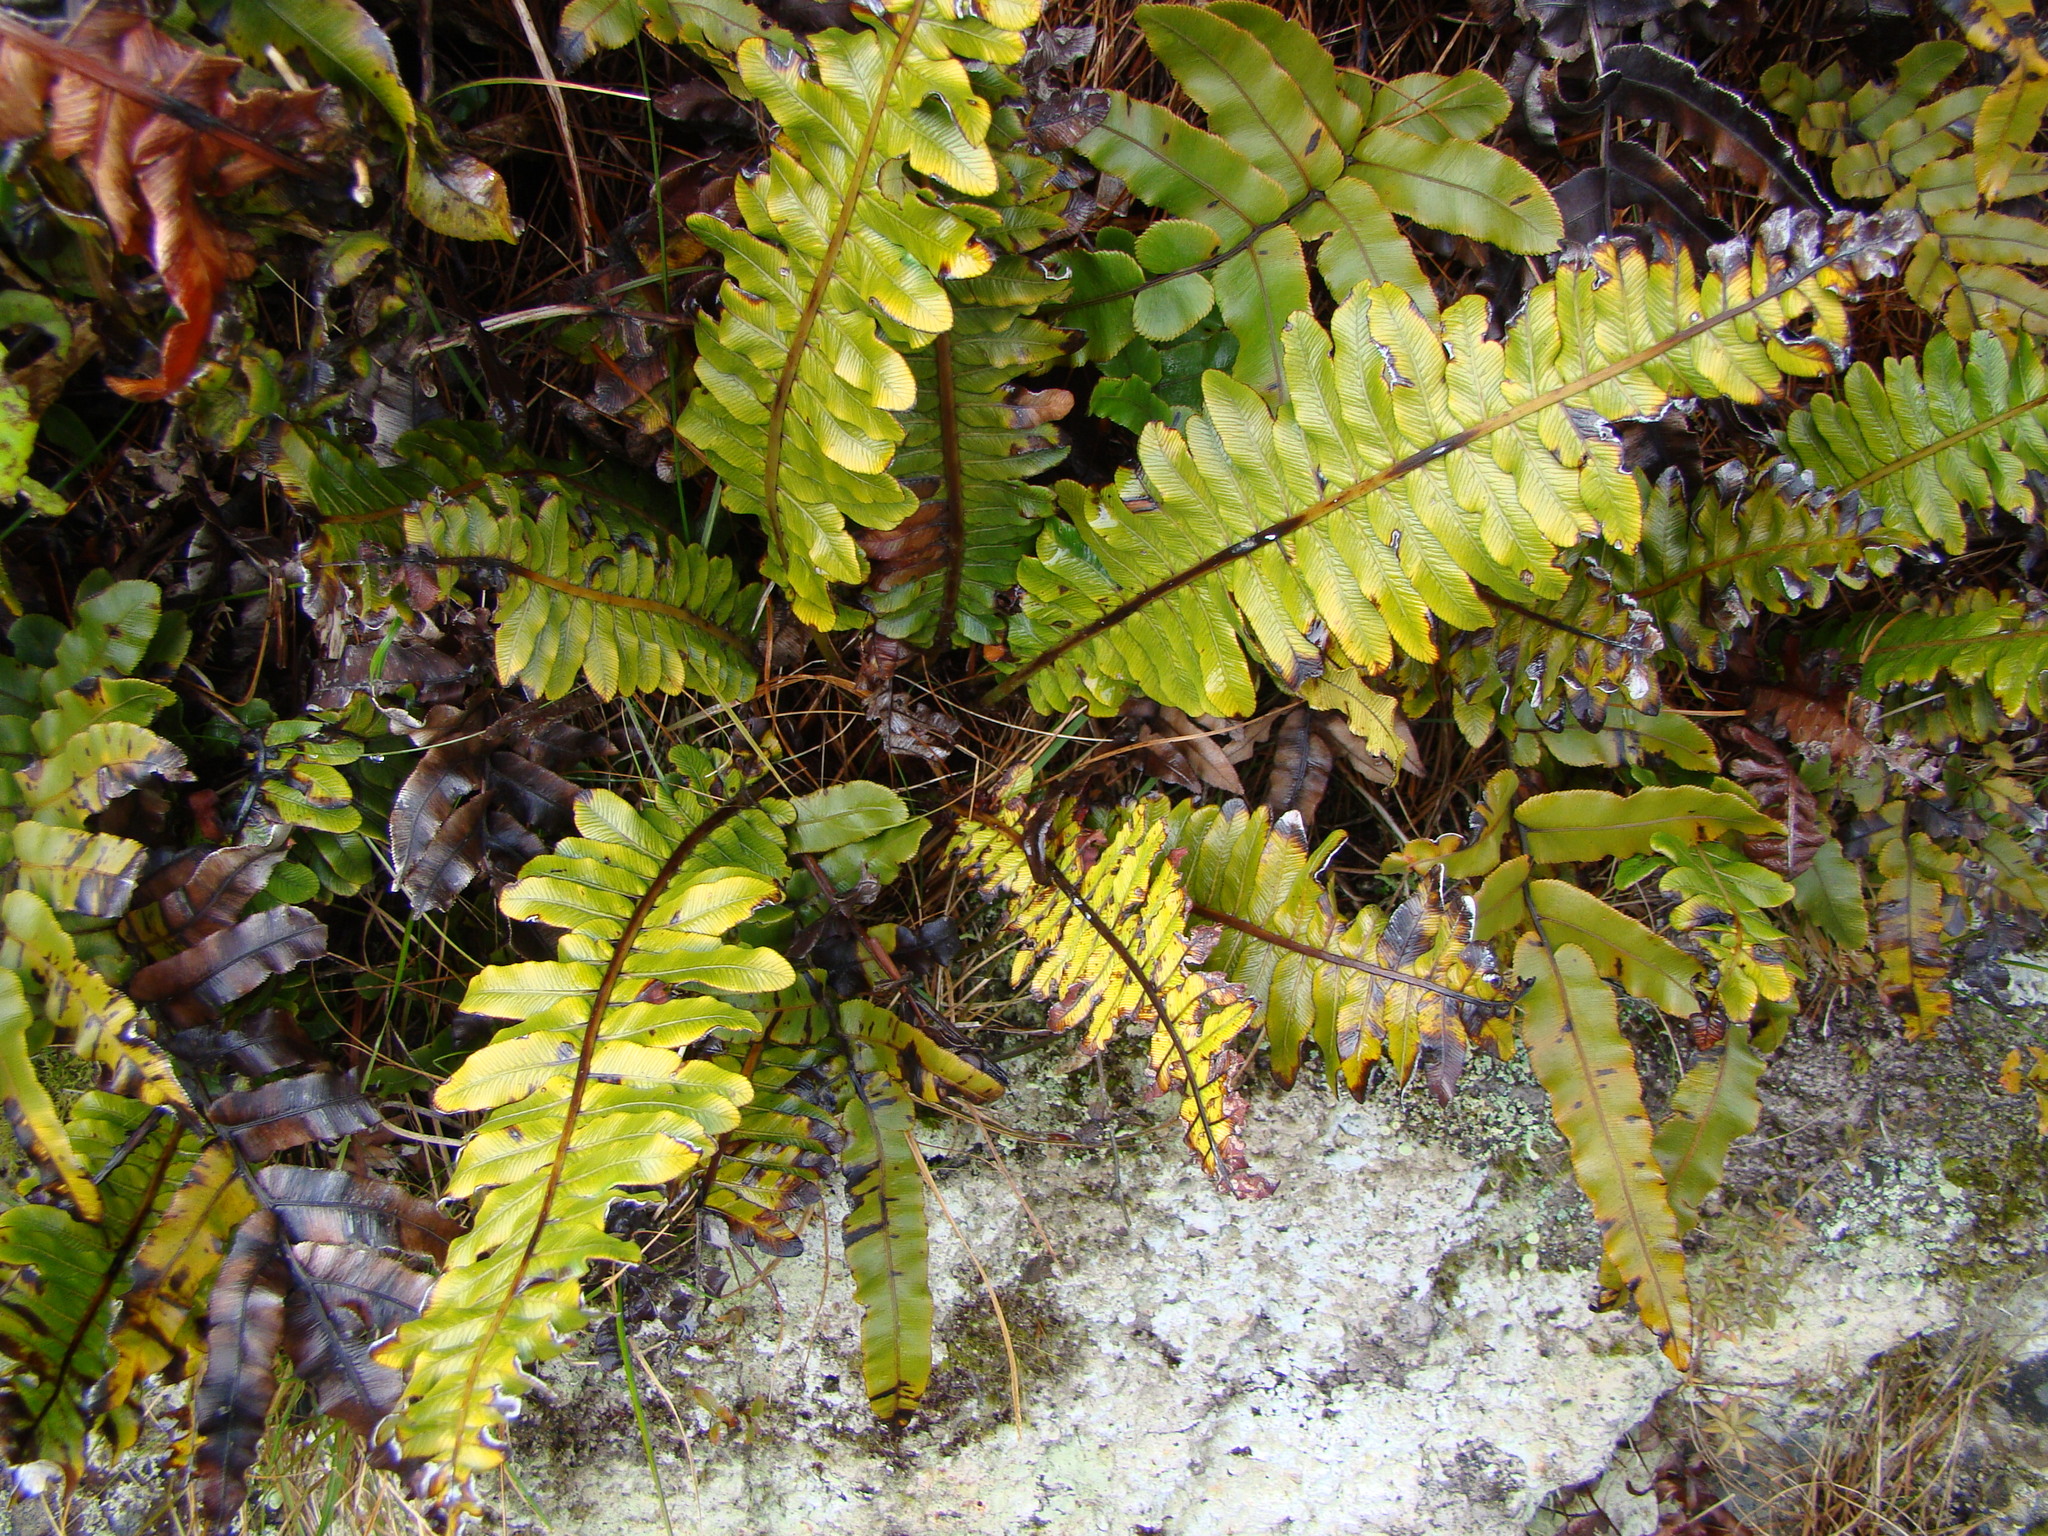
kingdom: Plantae
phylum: Tracheophyta
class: Polypodiopsida
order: Polypodiales
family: Blechnaceae
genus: Lomaria
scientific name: Lomaria discolor
